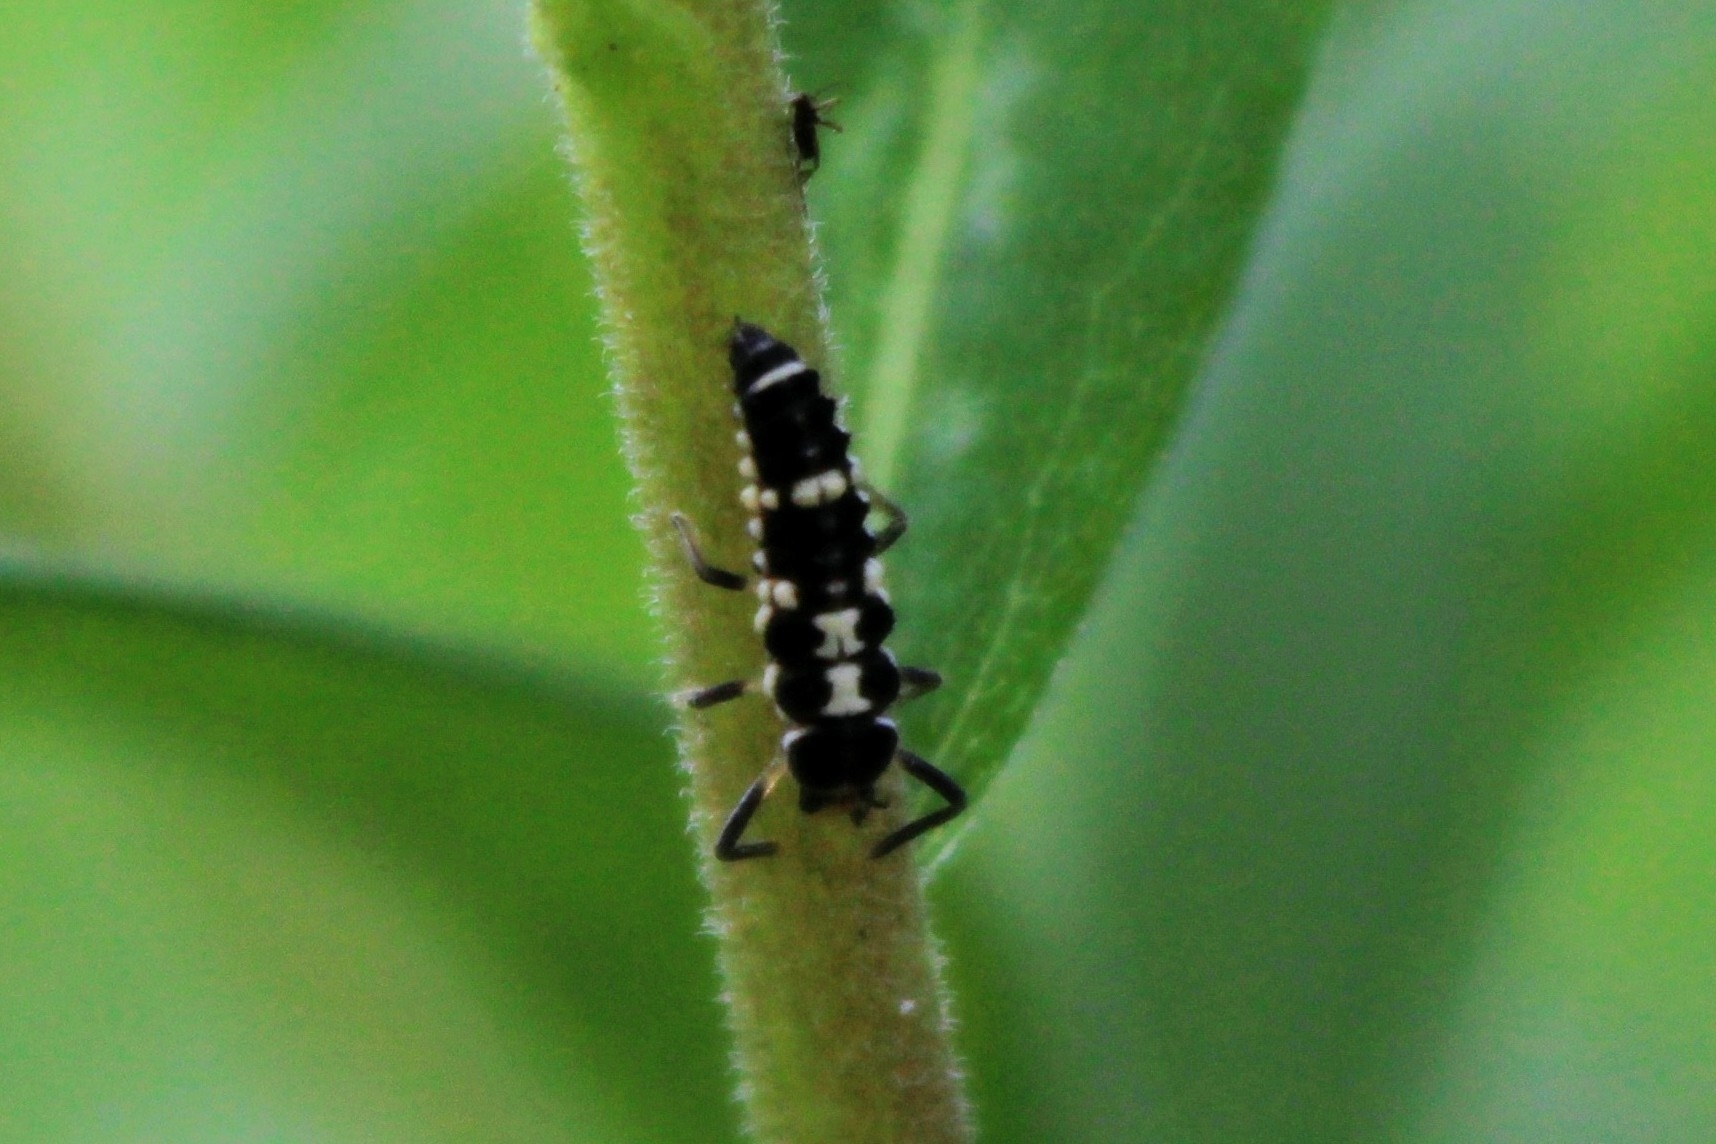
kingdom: Animalia
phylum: Arthropoda
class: Insecta
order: Coleoptera
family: Coccinellidae
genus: Propylaea
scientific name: Propylaea quatuordecimpunctata
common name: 14-spotted ladybird beetle
